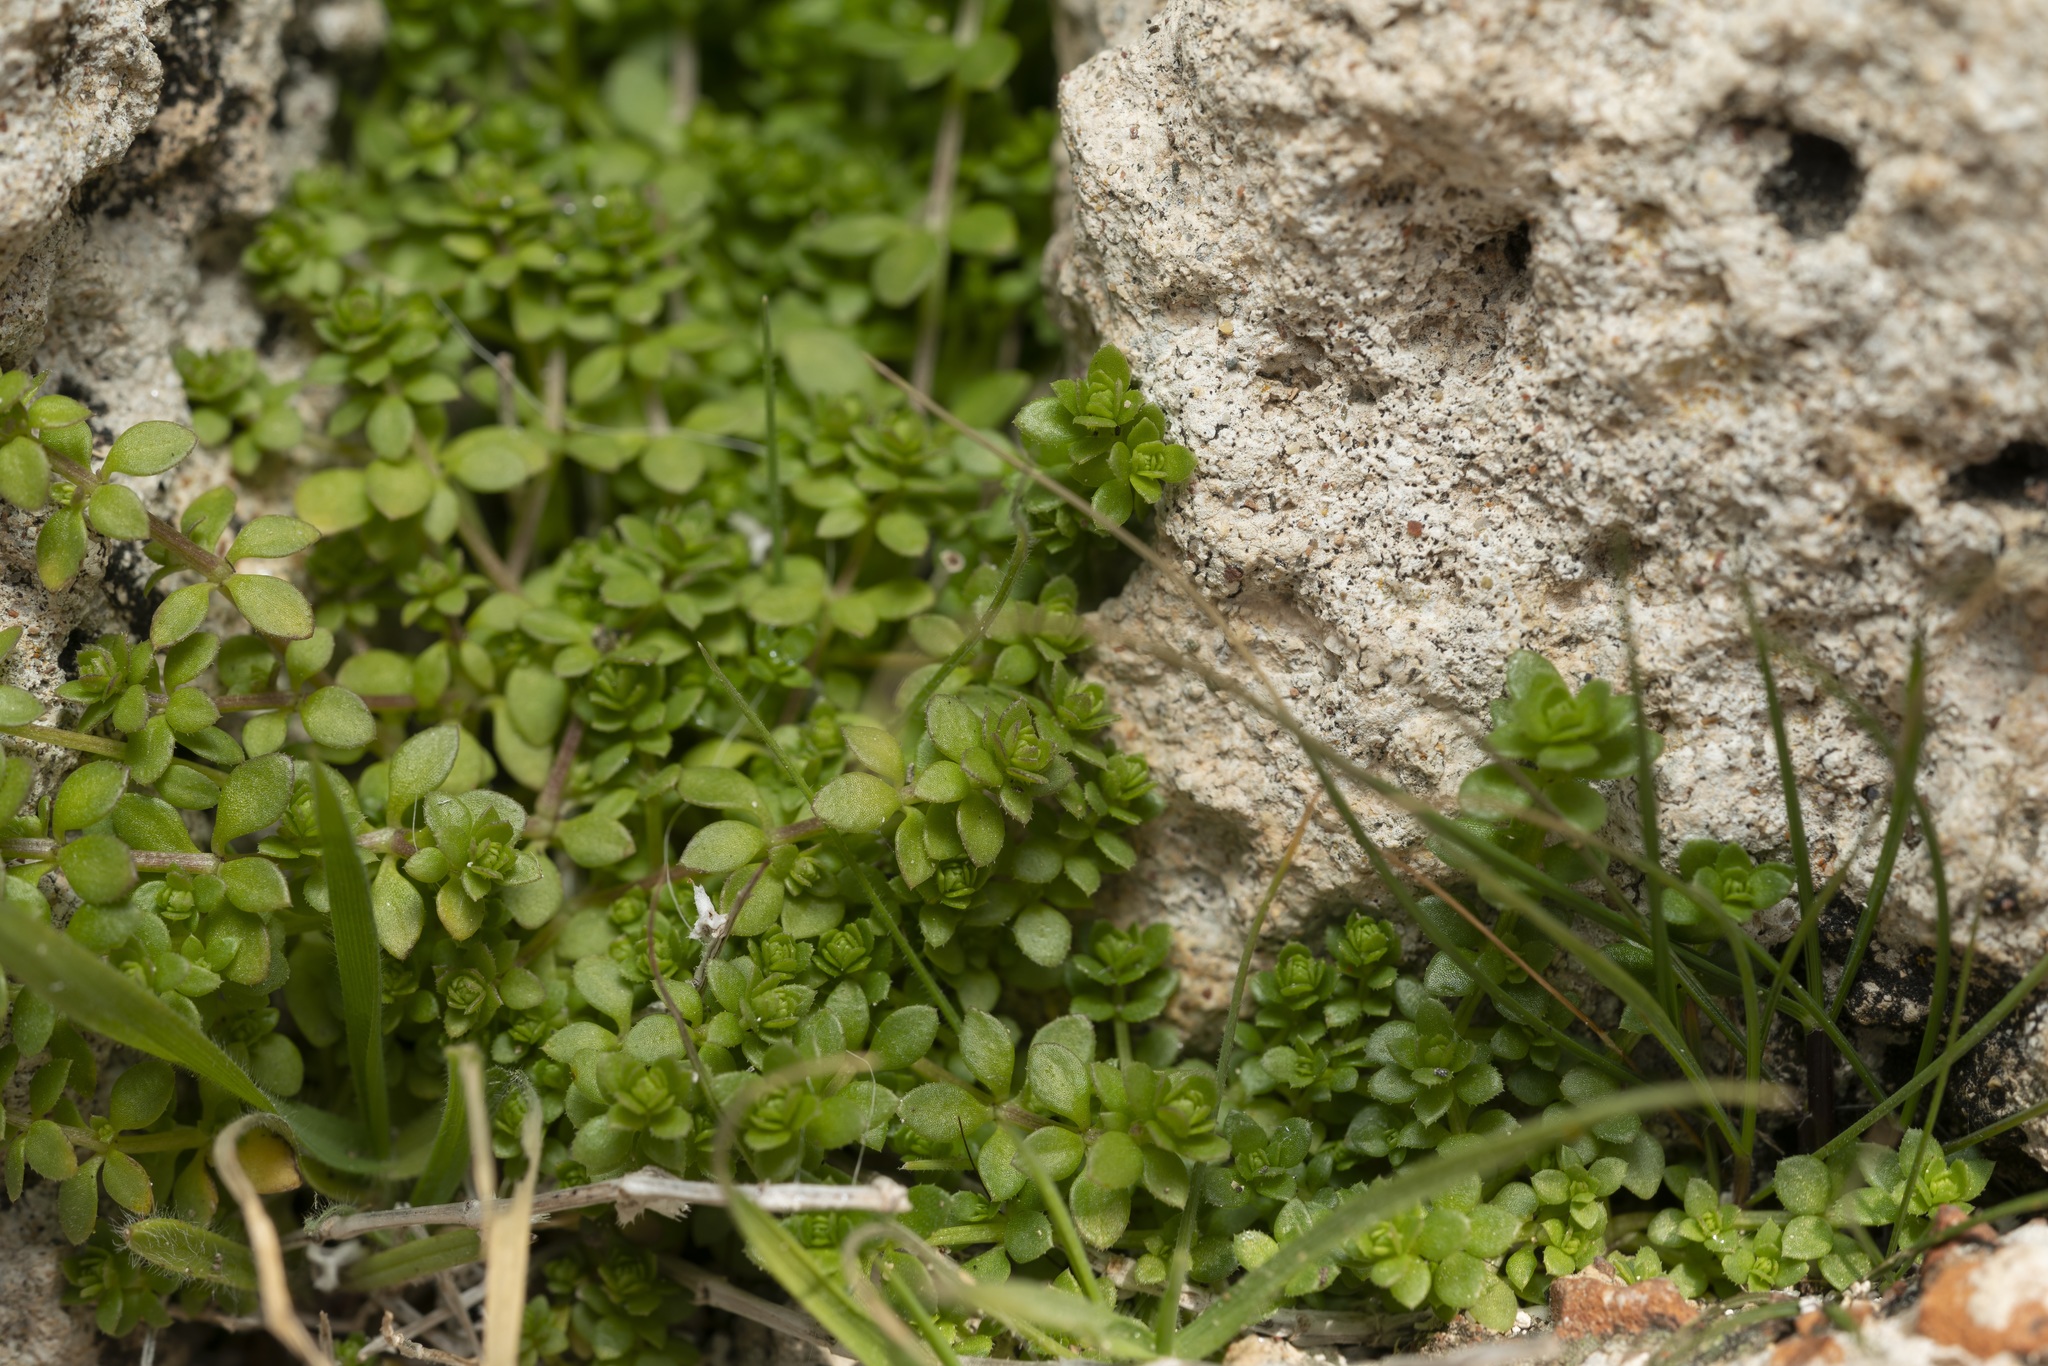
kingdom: Plantae
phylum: Tracheophyta
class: Magnoliopsida
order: Gentianales
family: Rubiaceae
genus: Valantia
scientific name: Valantia
